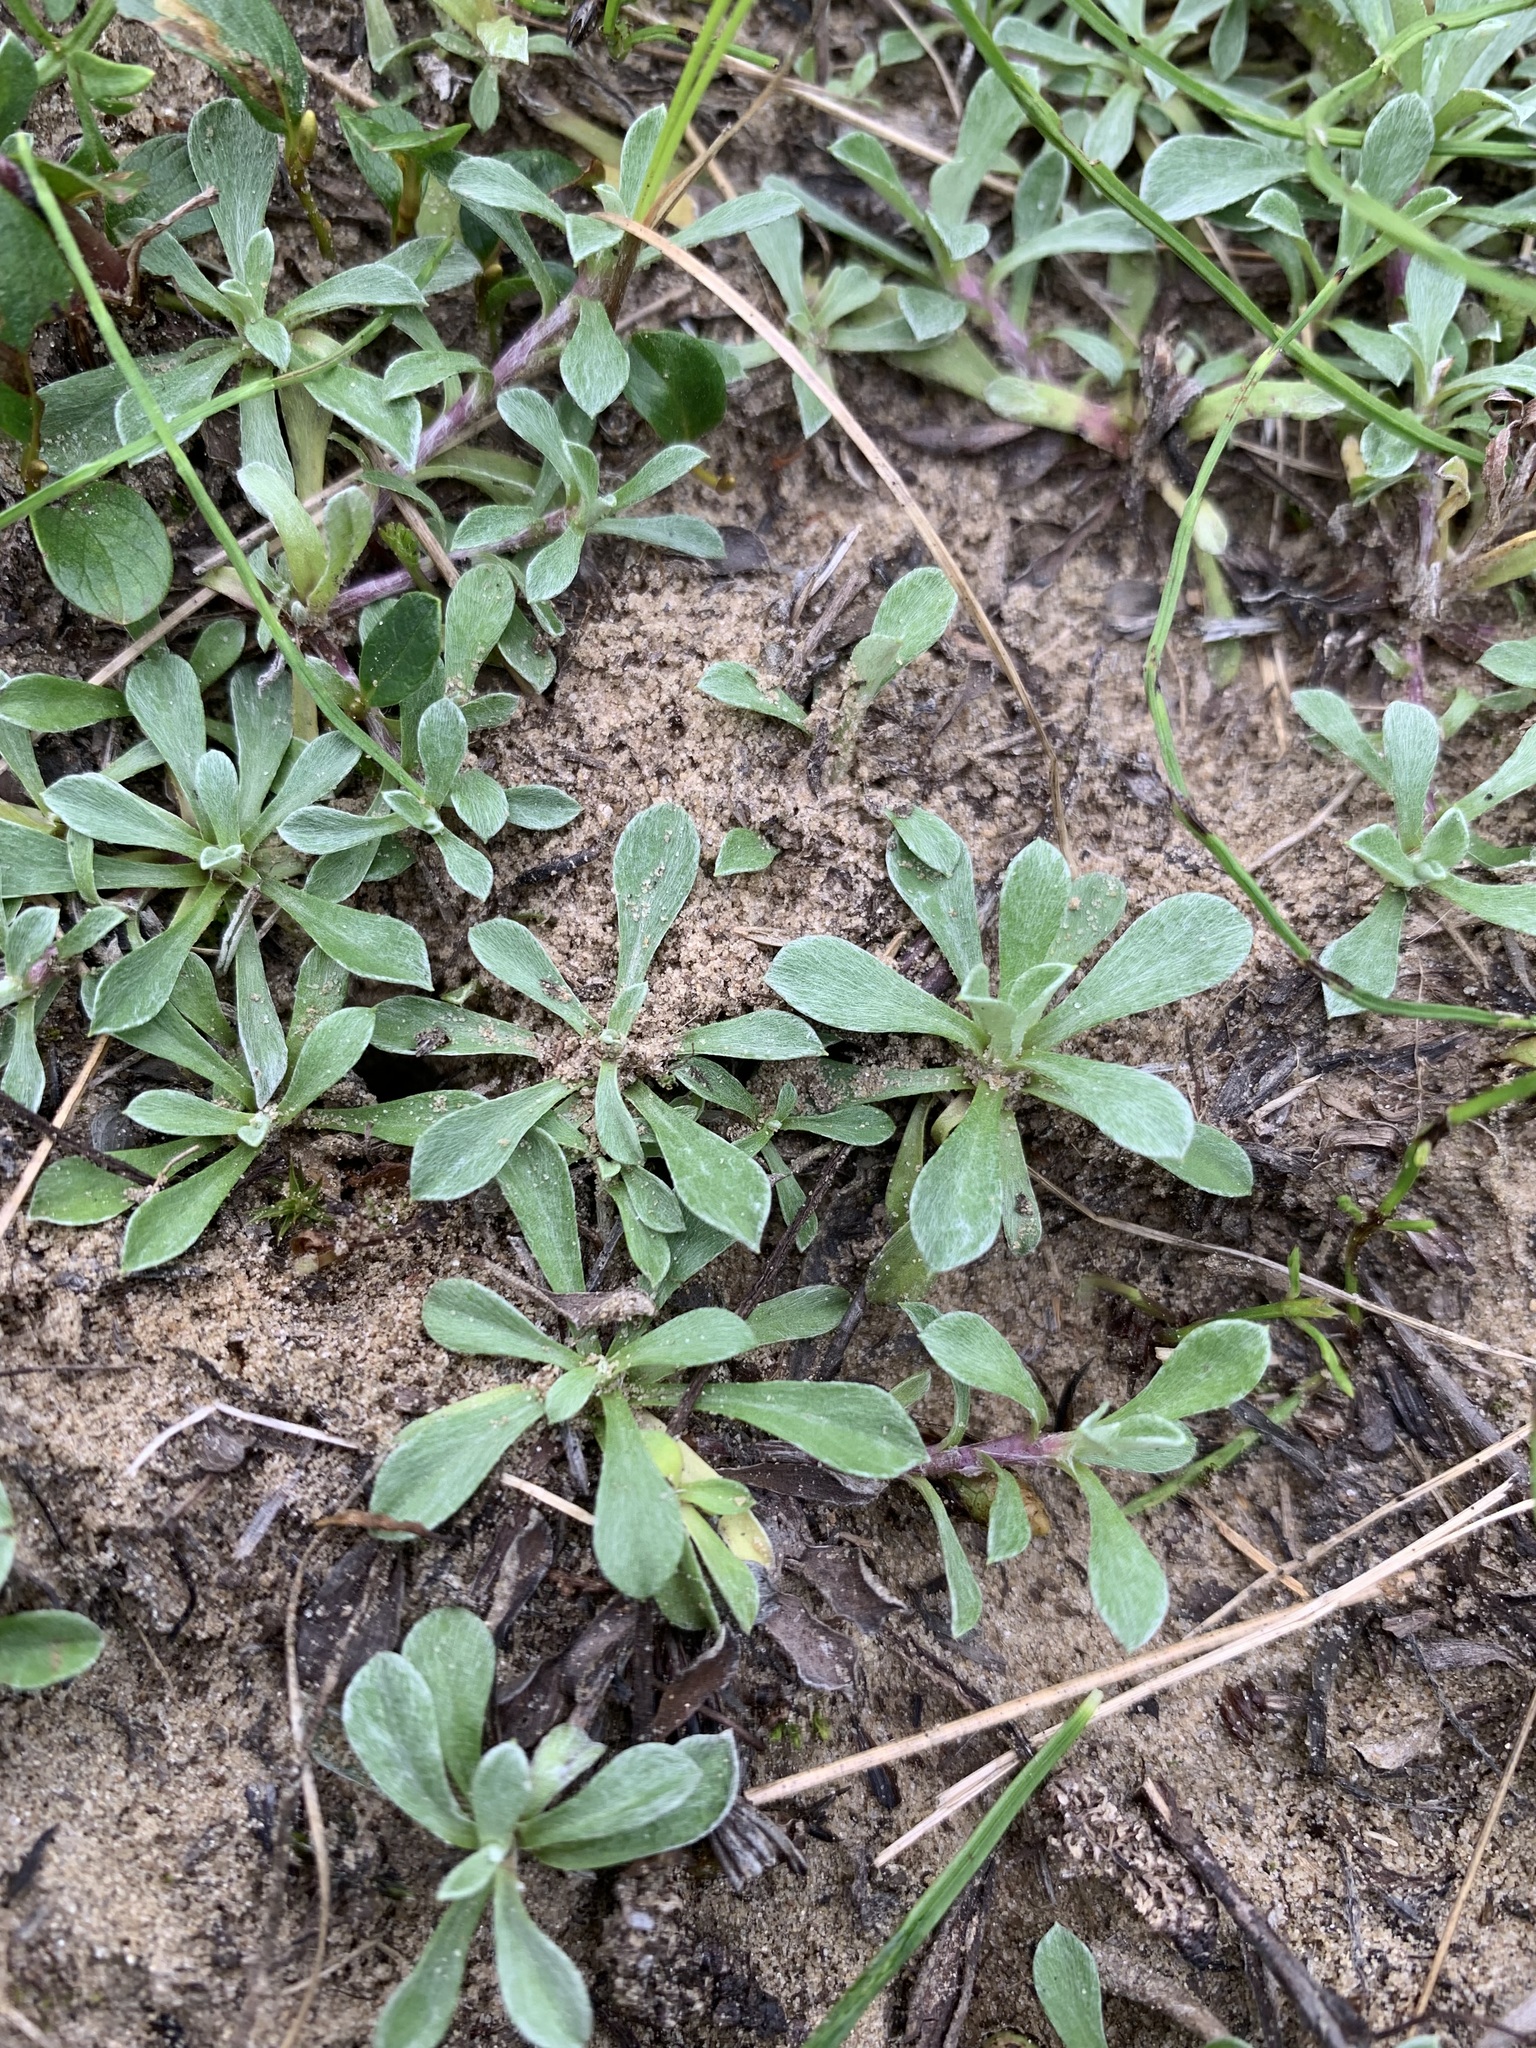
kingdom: Plantae
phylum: Tracheophyta
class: Magnoliopsida
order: Asterales
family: Asteraceae
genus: Antennaria
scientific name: Antennaria dioica
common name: Mountain everlasting
